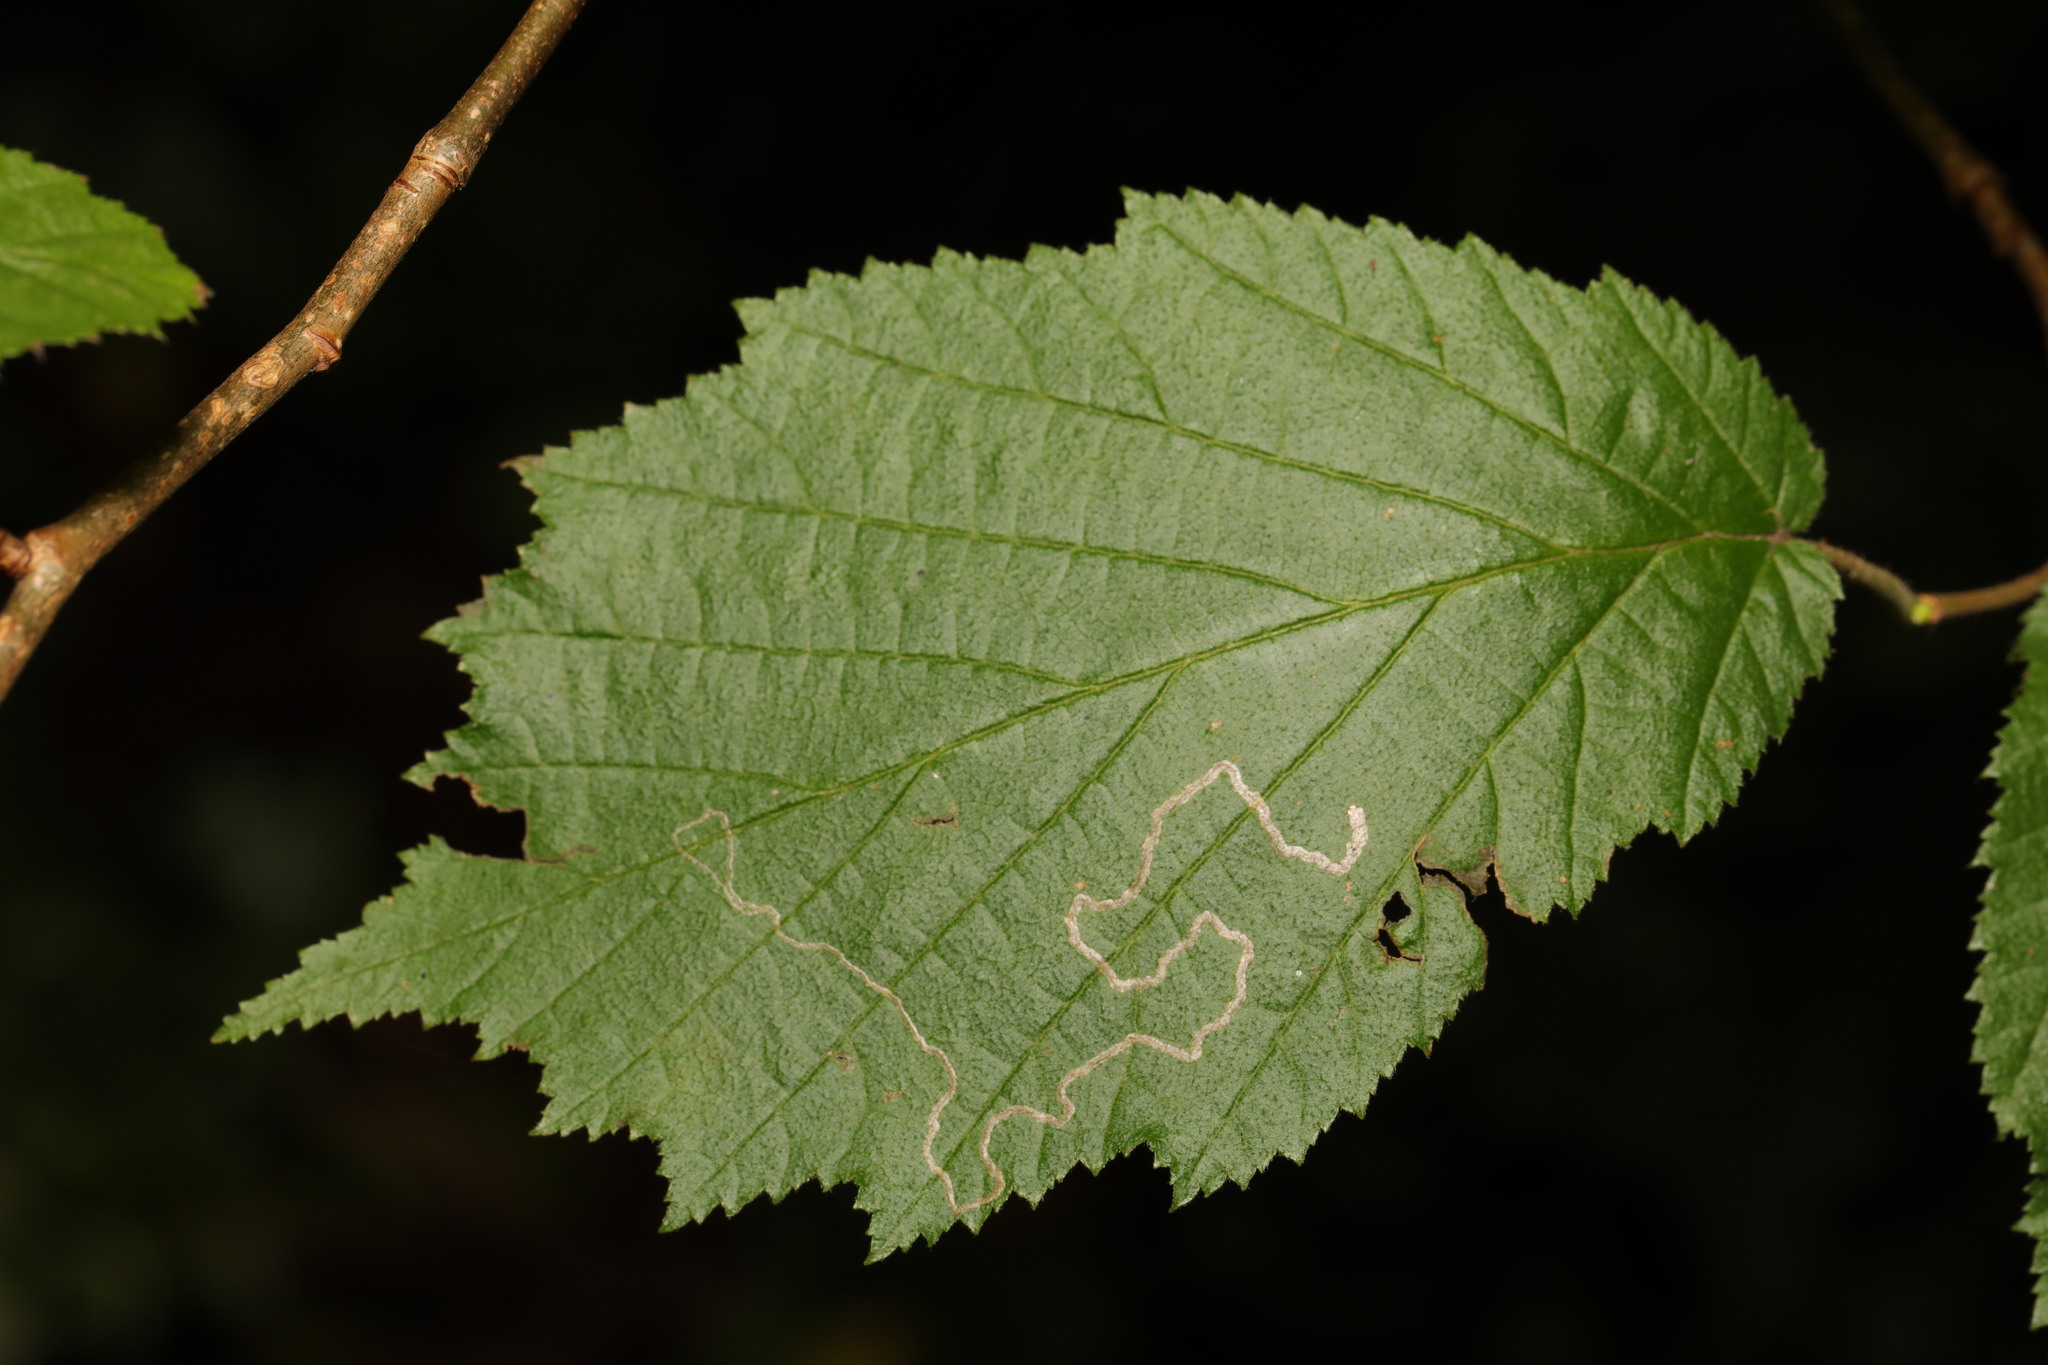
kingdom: Animalia
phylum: Arthropoda
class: Insecta
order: Lepidoptera
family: Nepticulidae
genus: Stigmella
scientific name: Stigmella microtheriella
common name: Nut-tree pigmy
